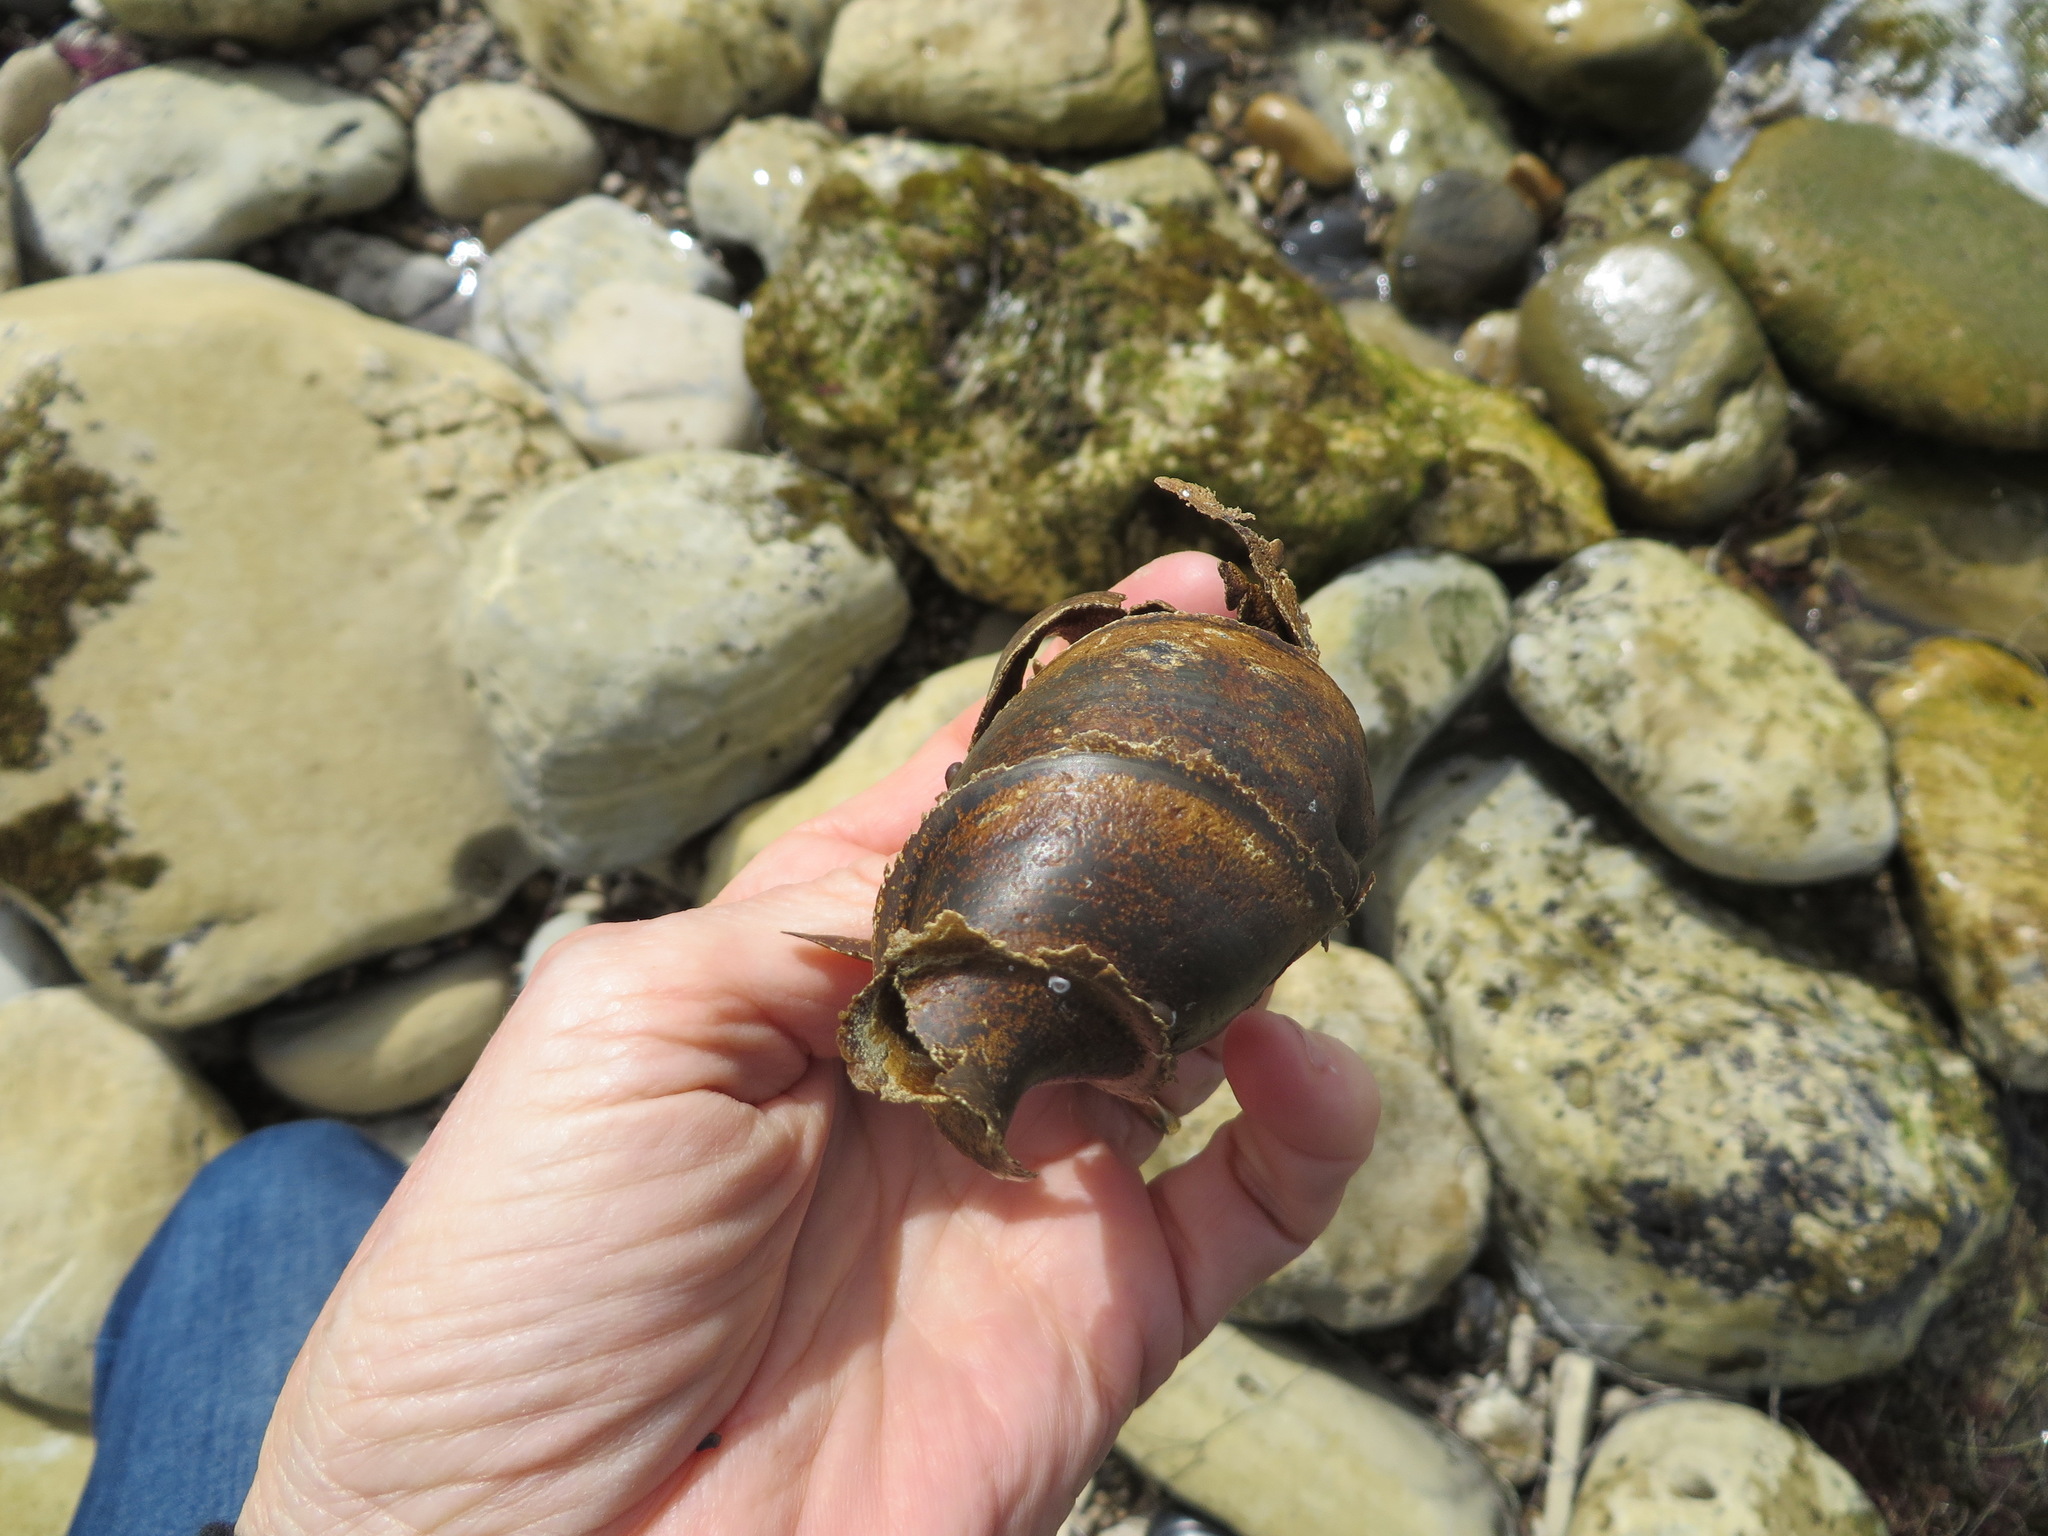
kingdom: Animalia
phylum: Chordata
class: Elasmobranchii
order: Heterodontiformes
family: Heterodontidae
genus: Heterodontus
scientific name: Heterodontus francisci
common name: Horn shark
